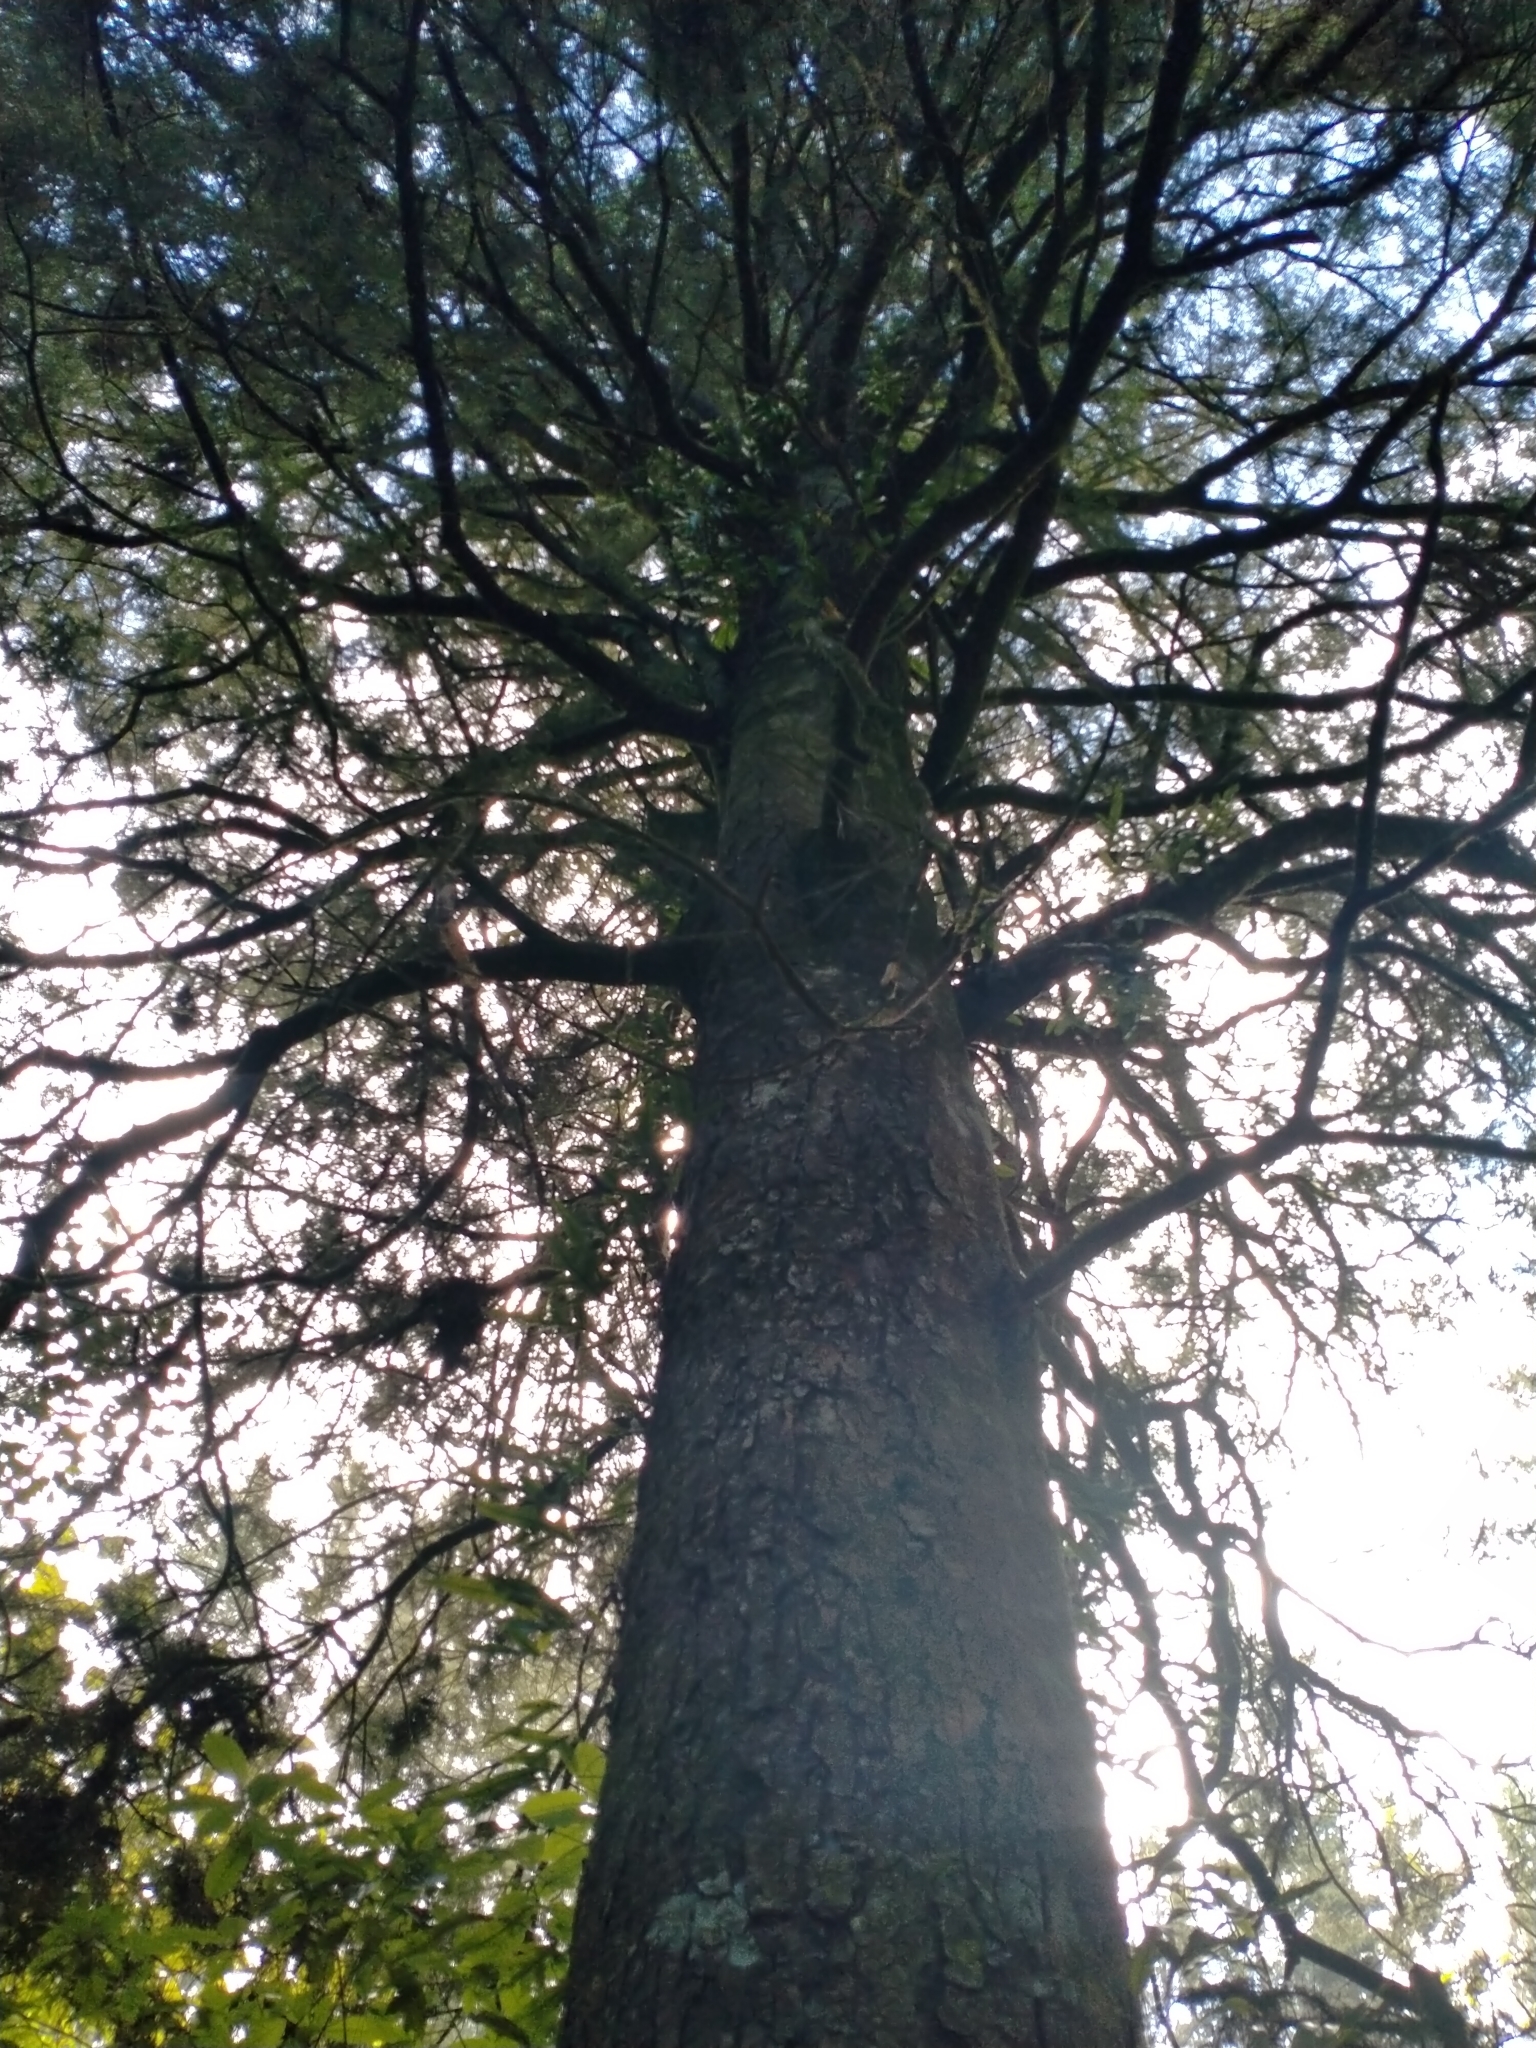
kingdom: Plantae
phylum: Tracheophyta
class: Pinopsida
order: Pinales
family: Podocarpaceae
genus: Dacrycarpus
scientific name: Dacrycarpus dacrydioides
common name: White pine
